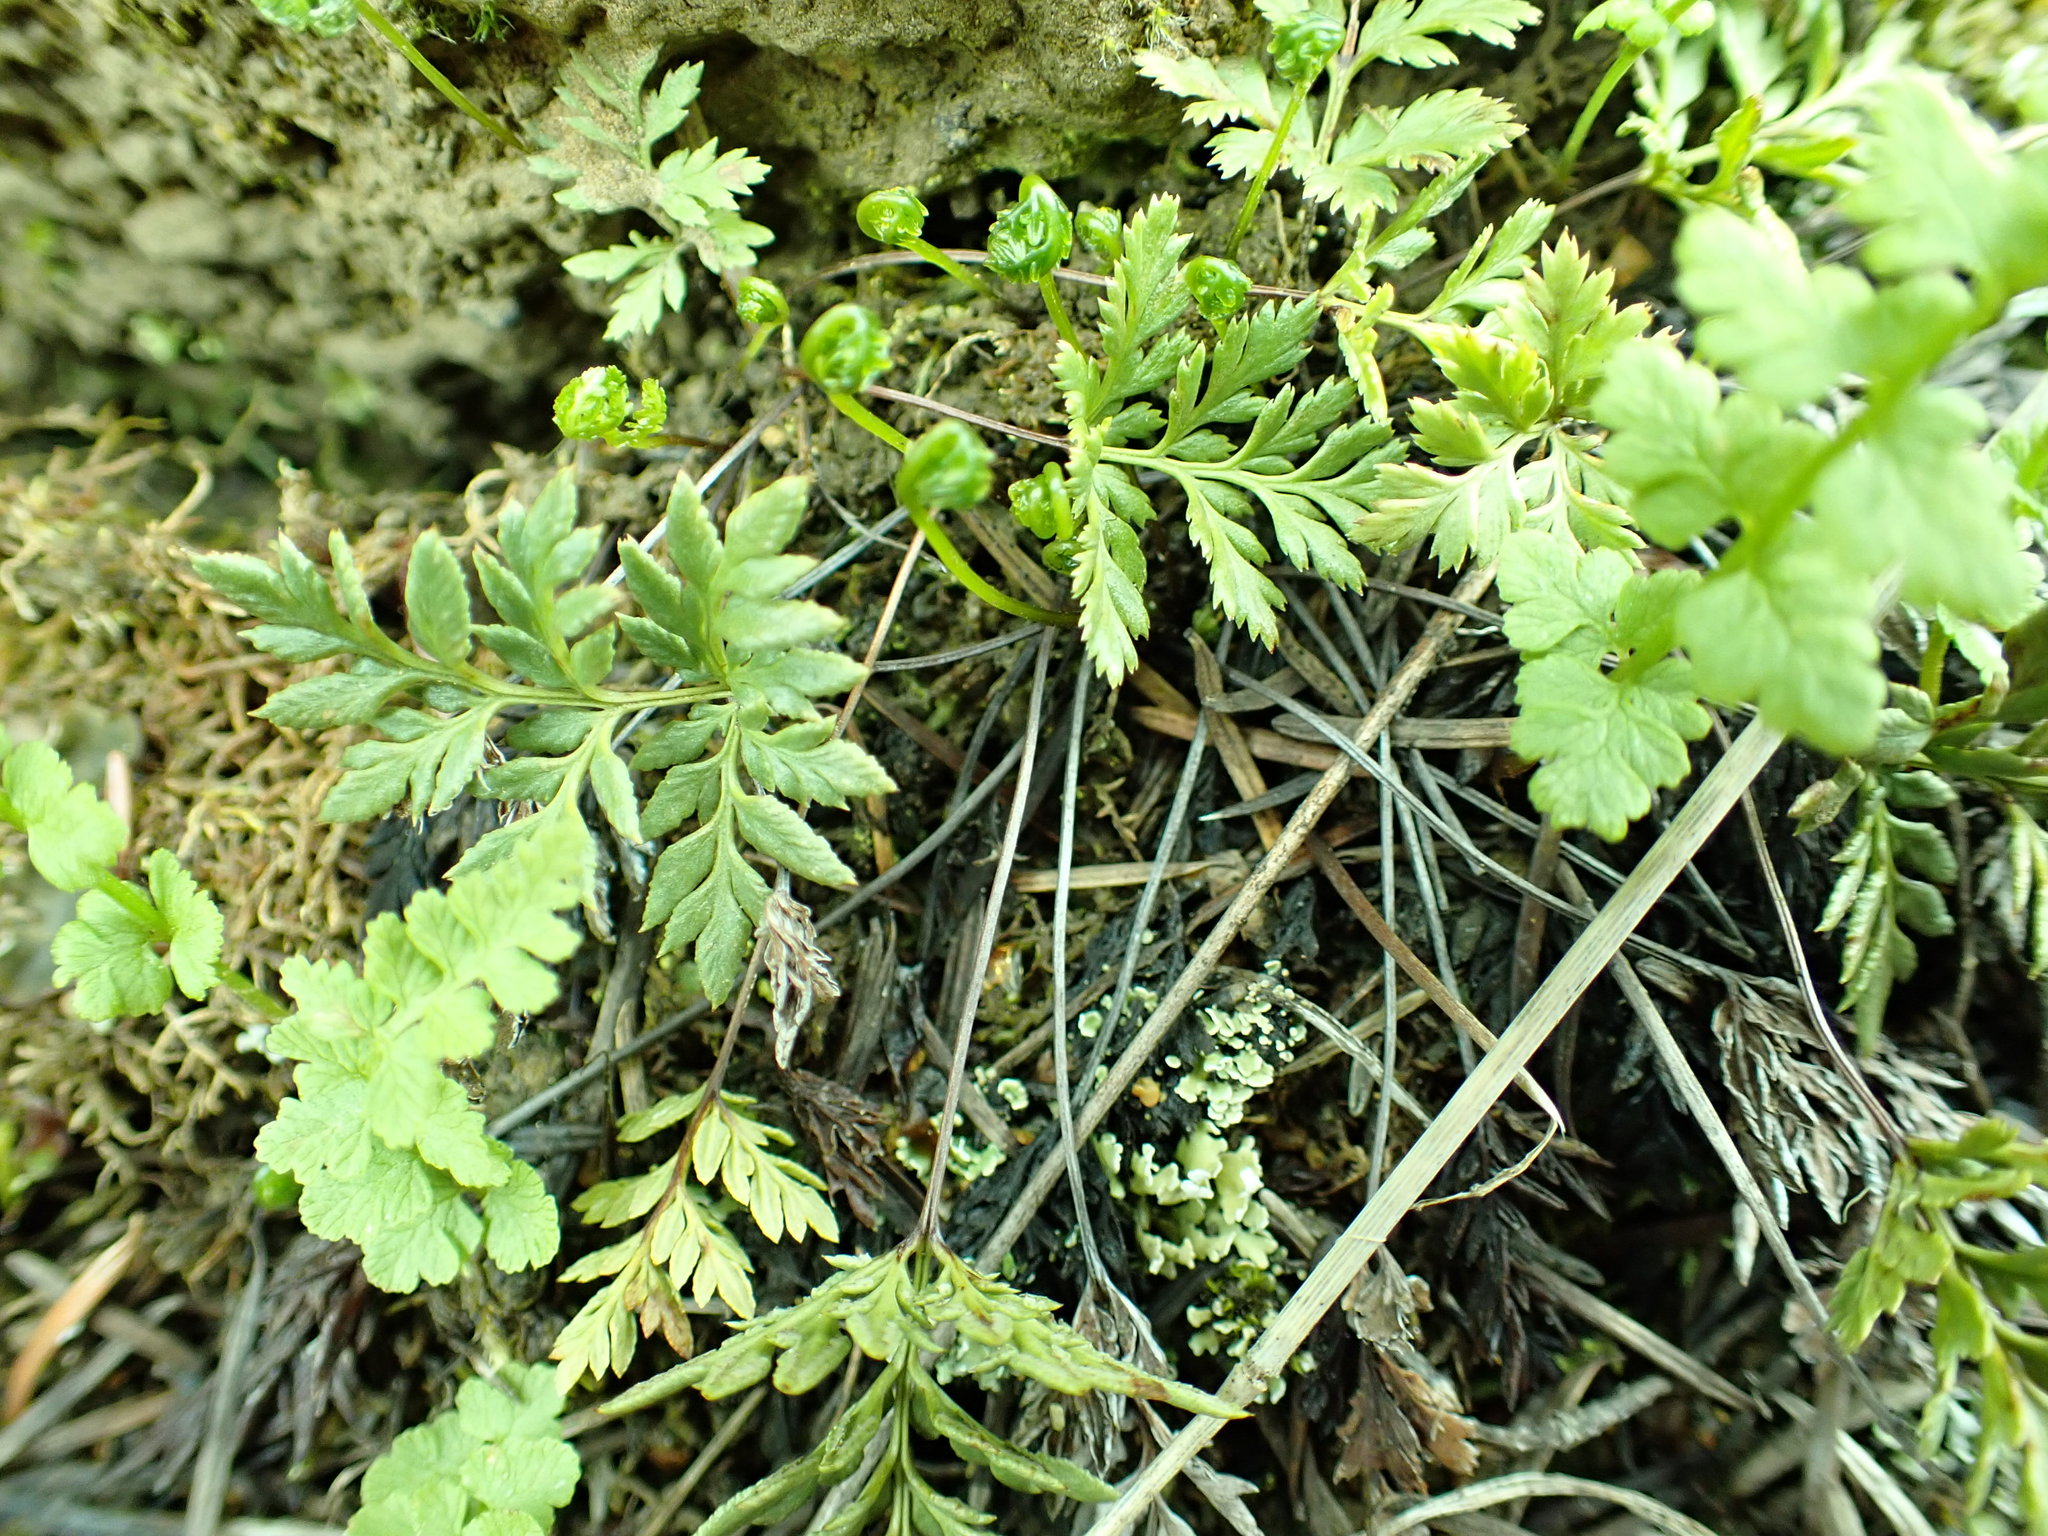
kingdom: Plantae
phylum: Tracheophyta
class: Polypodiopsida
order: Polypodiales
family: Pteridaceae
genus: Aspidotis
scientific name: Aspidotis densa
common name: Indian's dream
